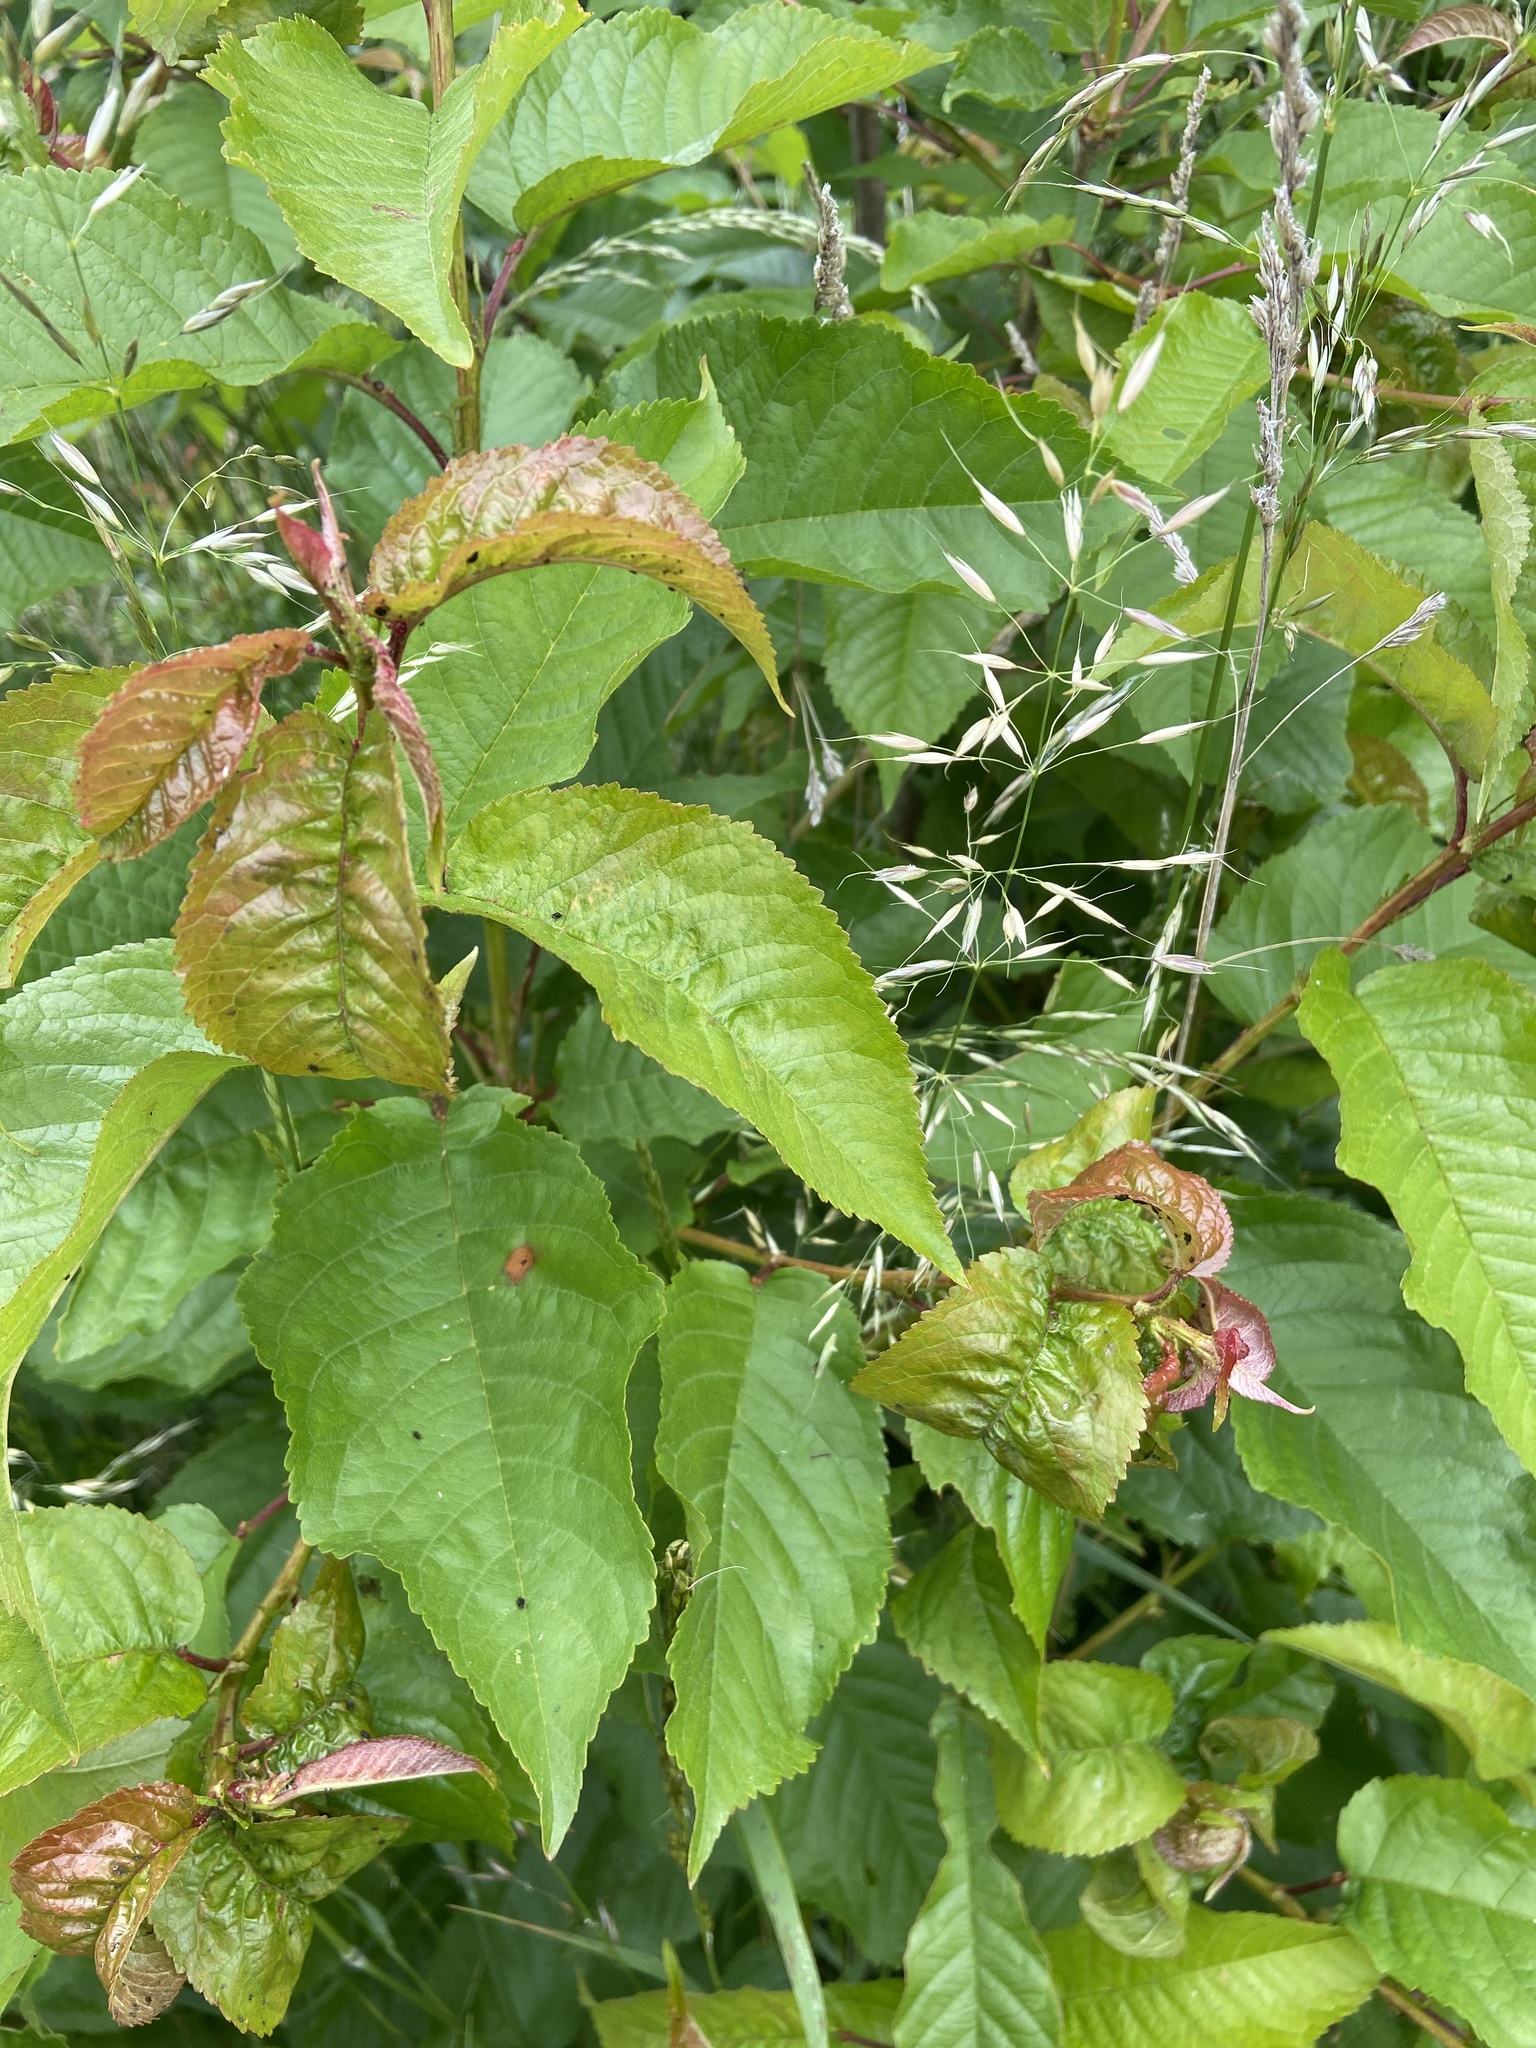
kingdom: Plantae
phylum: Tracheophyta
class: Magnoliopsida
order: Rosales
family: Rosaceae
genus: Prunus
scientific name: Prunus avium
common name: Sweet cherry
